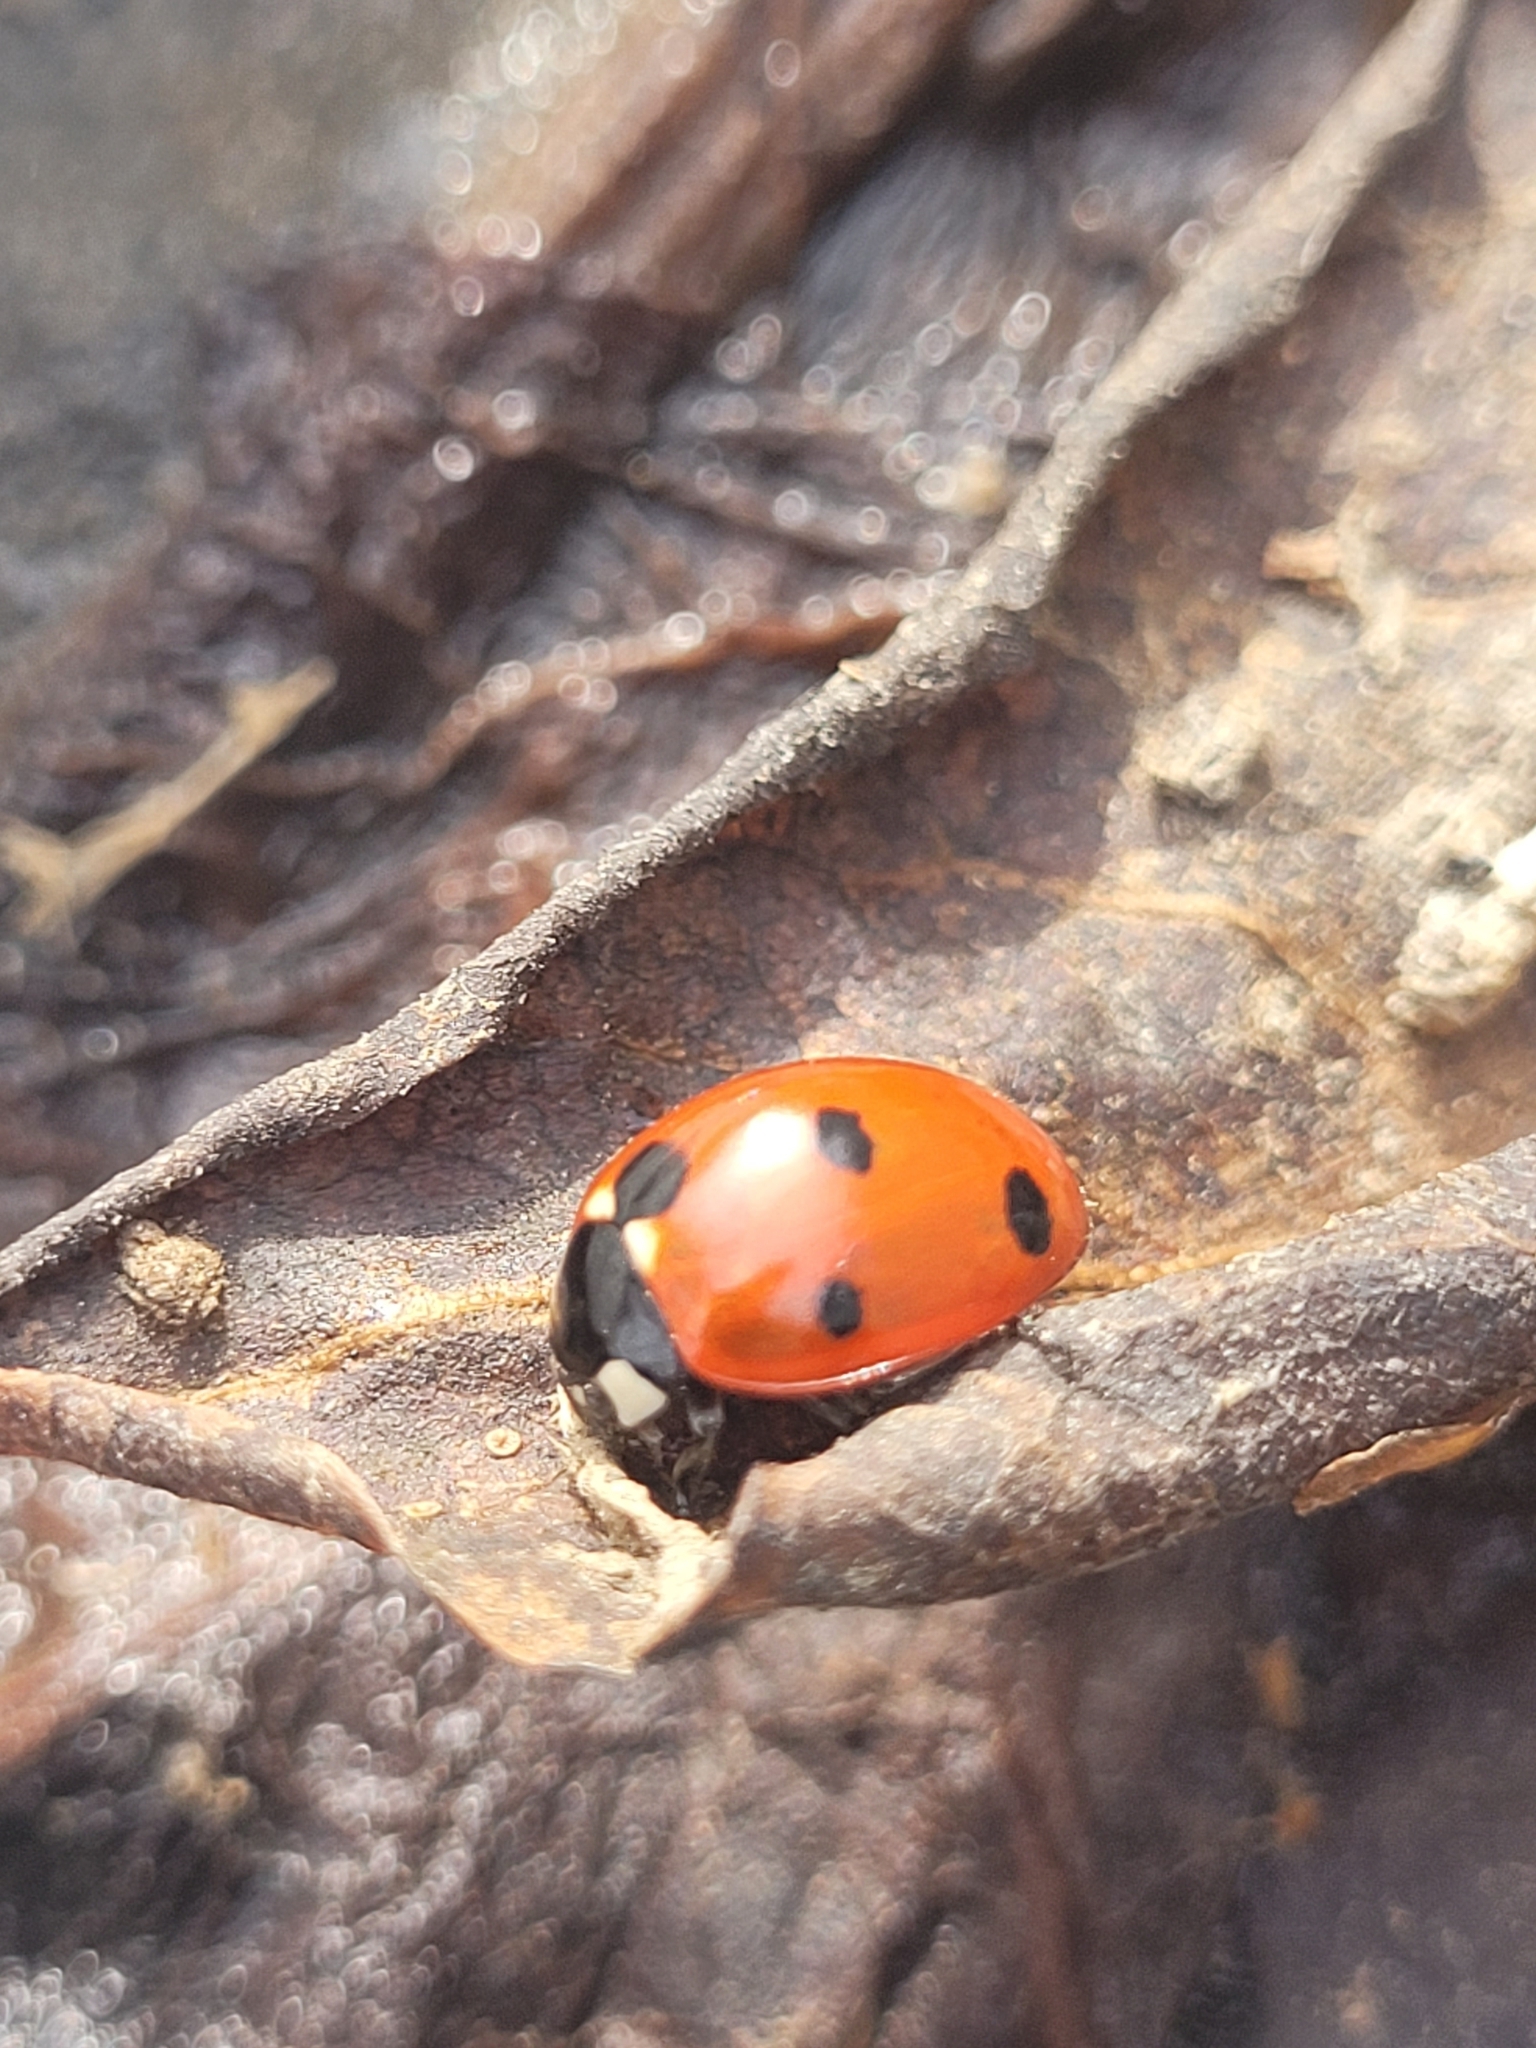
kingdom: Animalia
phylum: Arthropoda
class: Insecta
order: Coleoptera
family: Coccinellidae
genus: Coccinella
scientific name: Coccinella septempunctata
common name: Sevenspotted lady beetle
